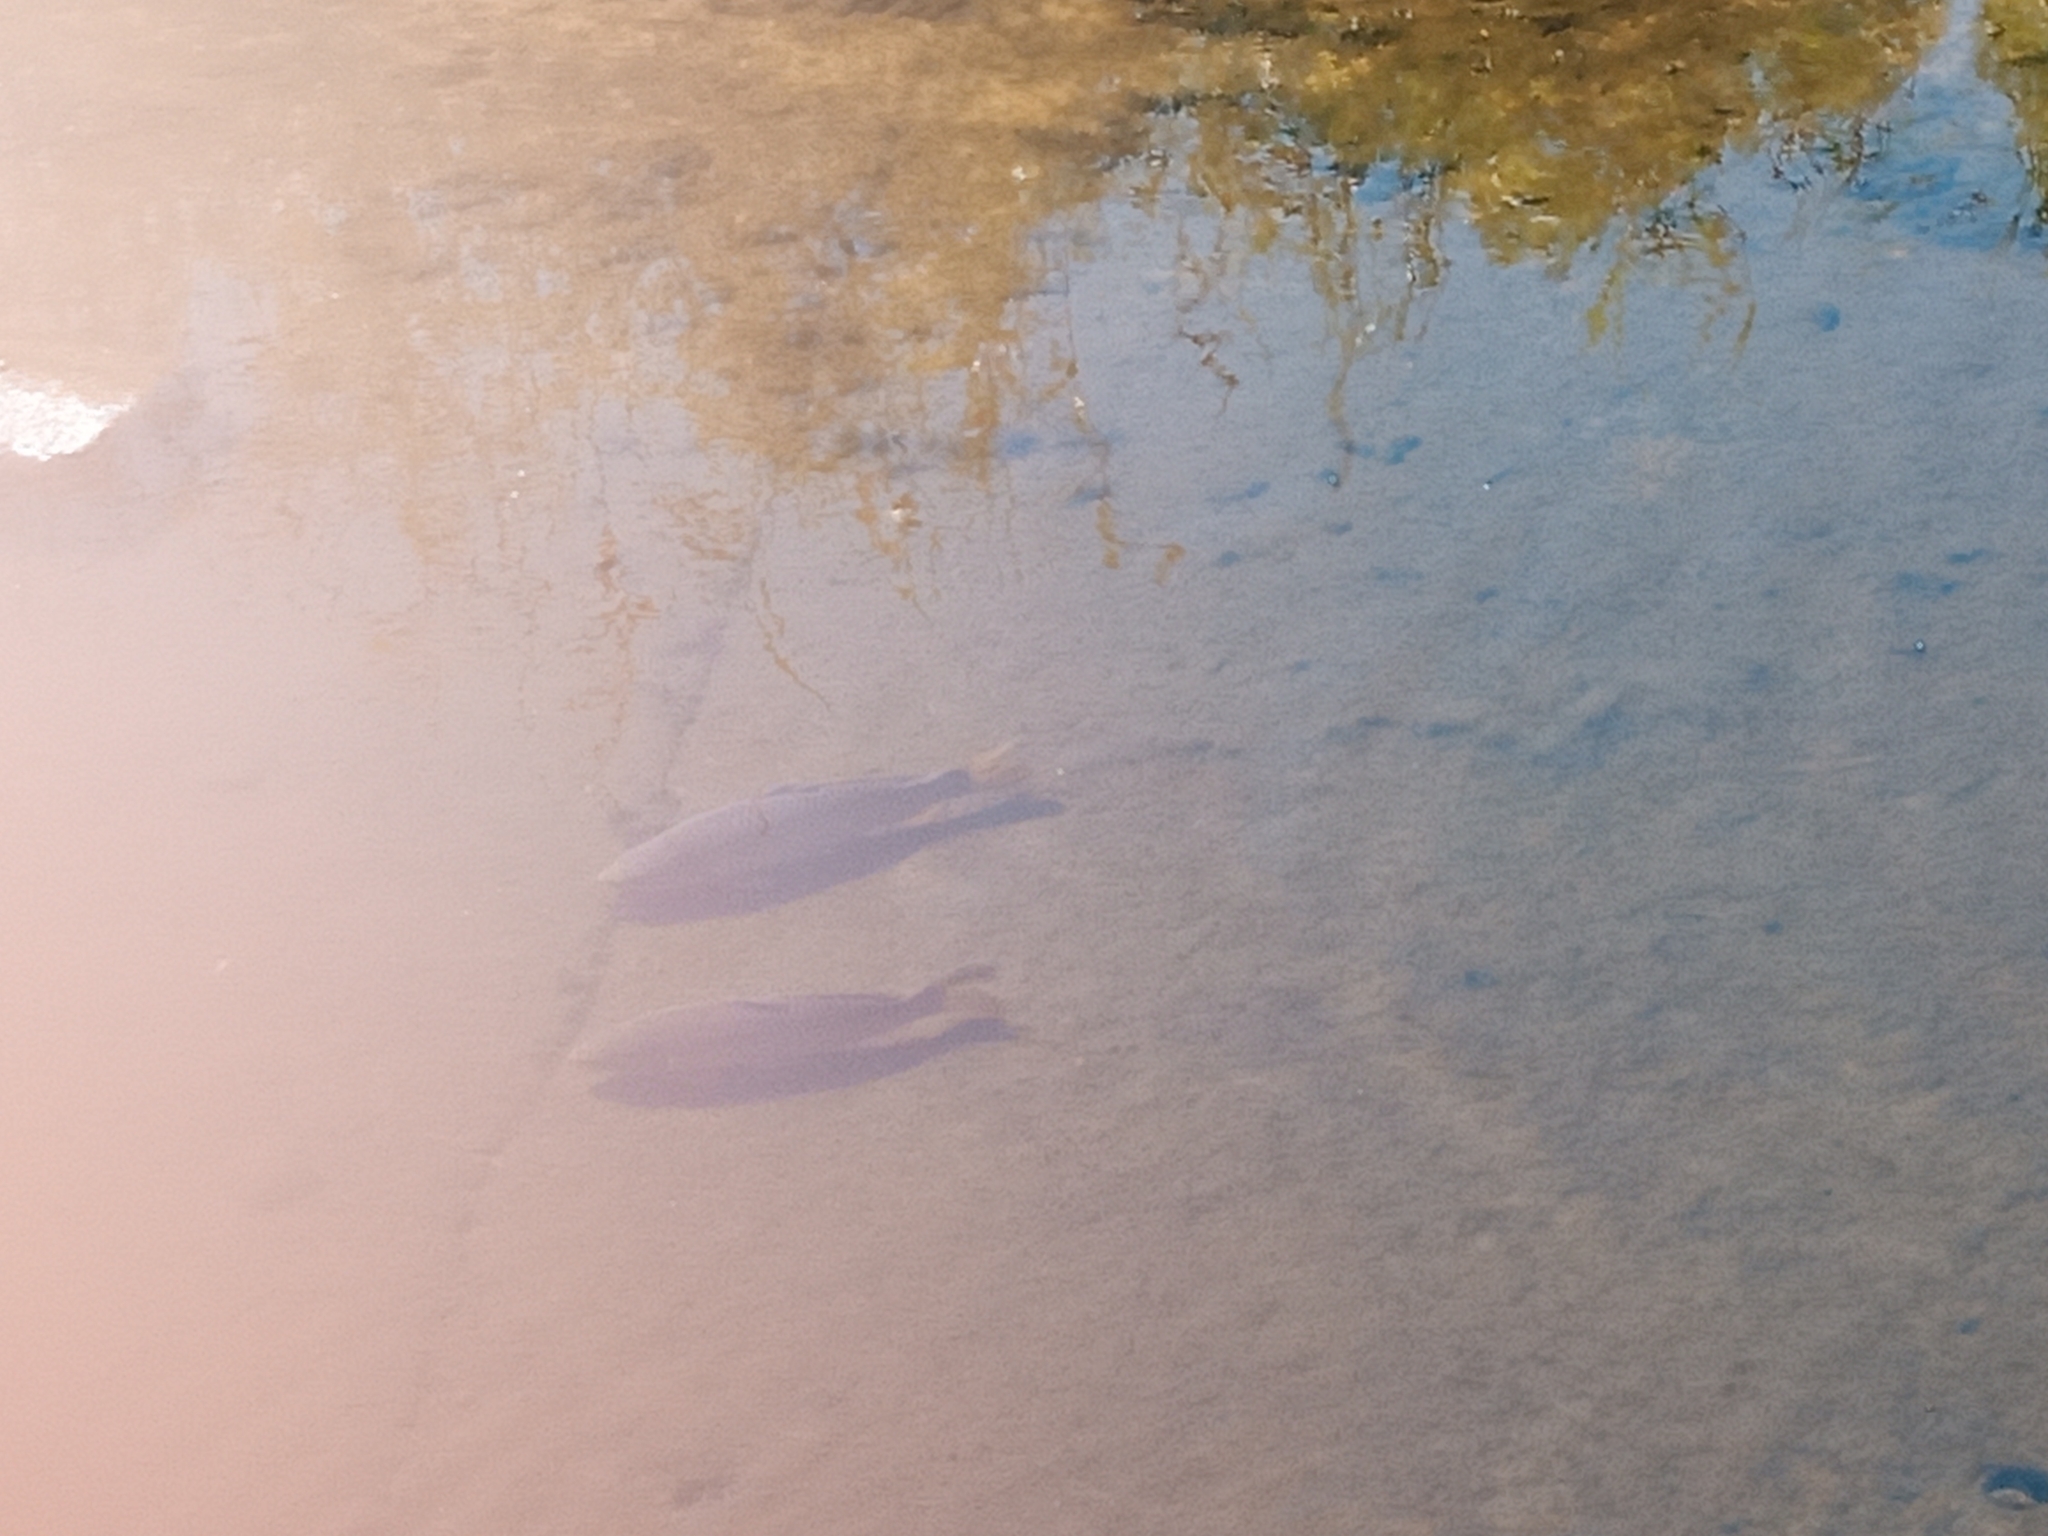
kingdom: Animalia
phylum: Chordata
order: Cypriniformes
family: Cyprinidae
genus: Cyprinus
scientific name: Cyprinus carpio
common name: Common carp
